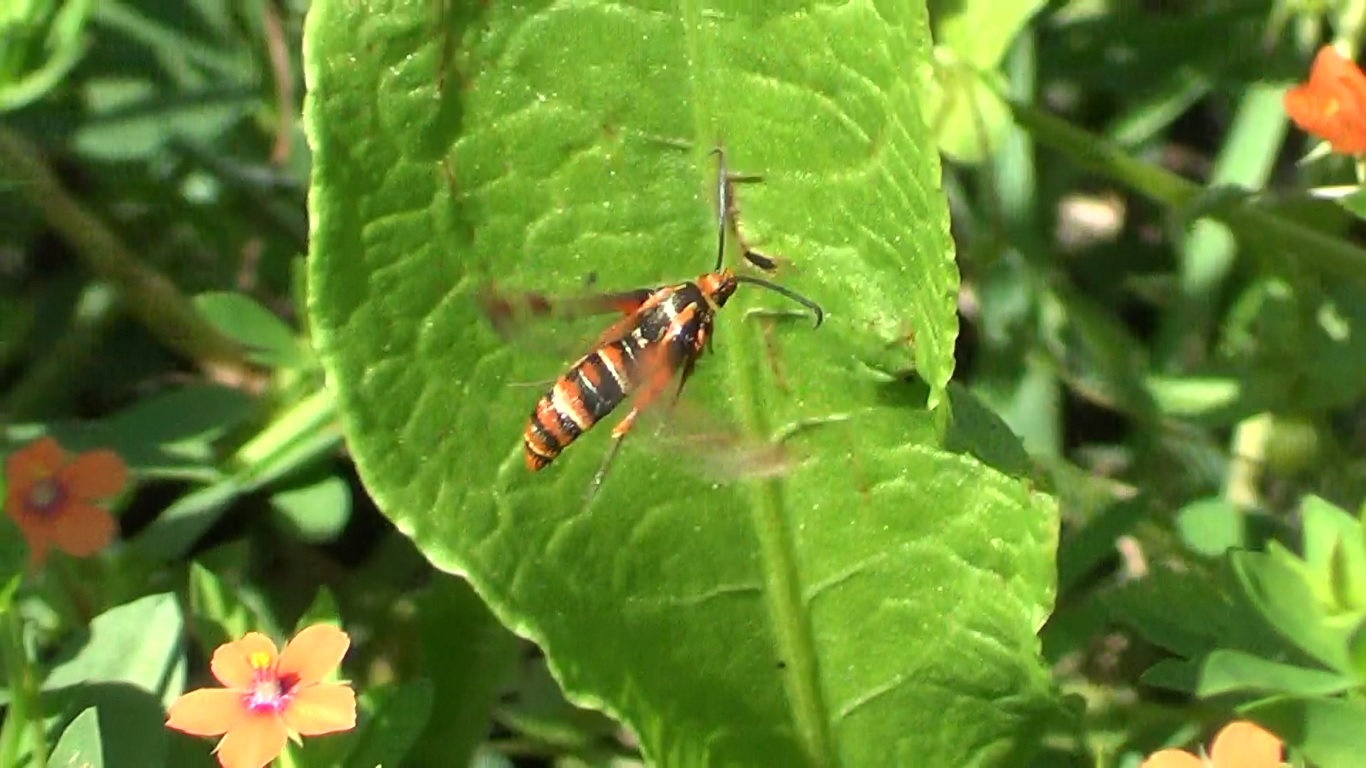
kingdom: Animalia
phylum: Arthropoda
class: Insecta
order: Lepidoptera
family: Sesiidae
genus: Pyropteron
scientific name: Pyropteron icteropus
